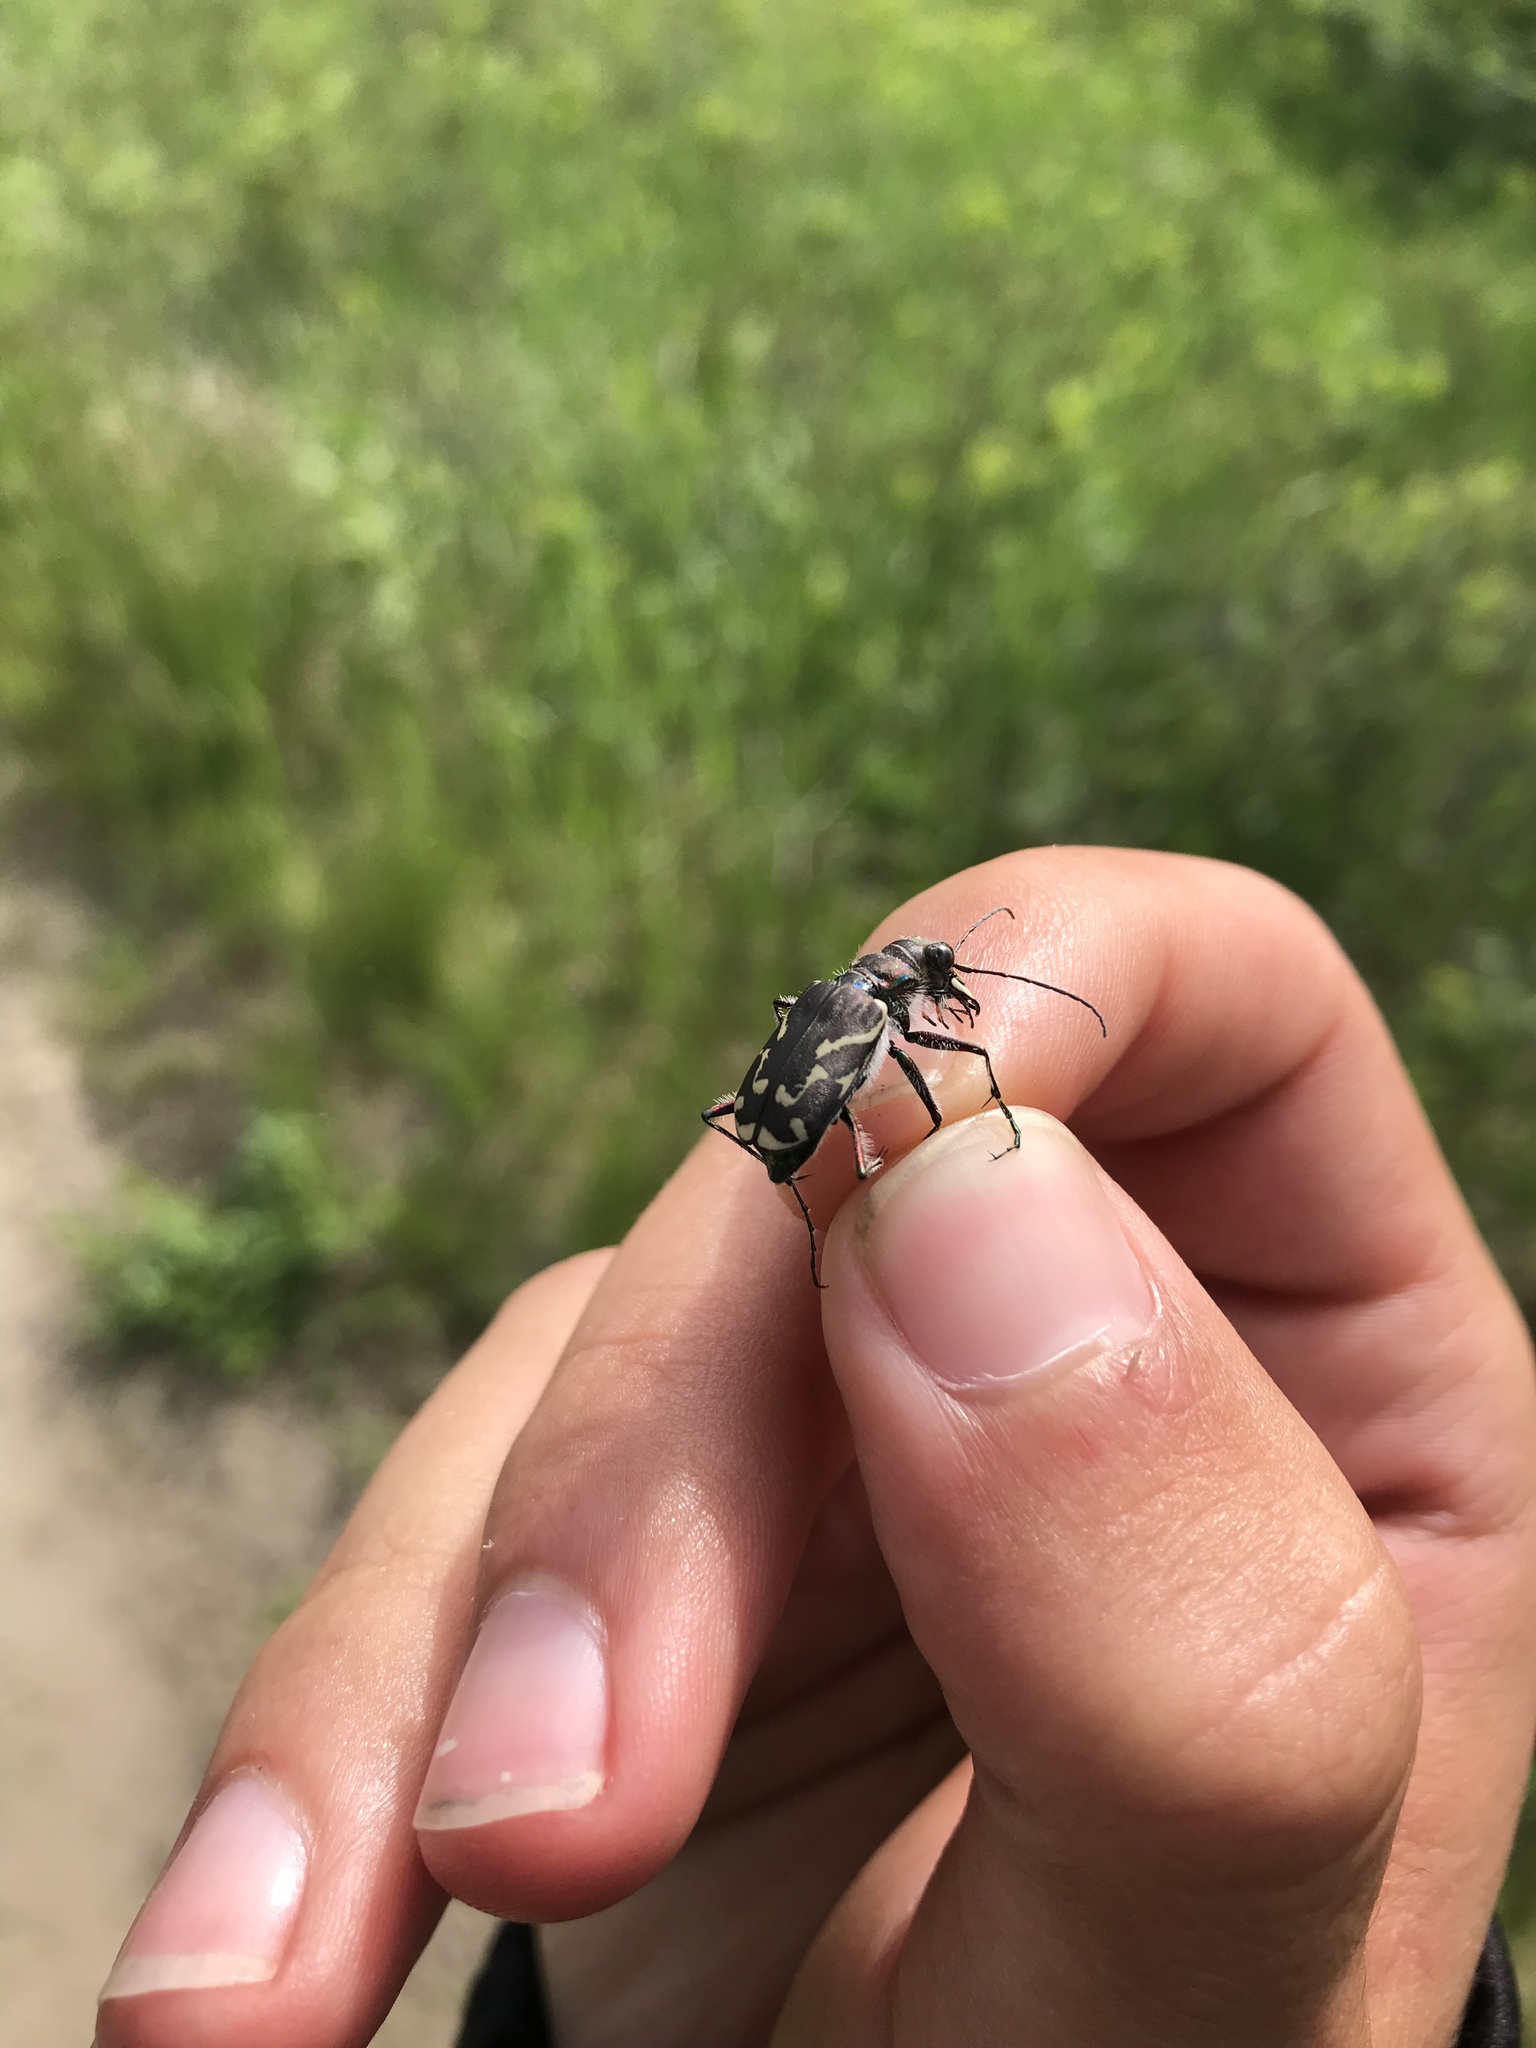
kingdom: Animalia
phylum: Arthropoda
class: Insecta
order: Coleoptera
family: Carabidae
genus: Cicindela
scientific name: Cicindela tranquebarica
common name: Oblique-lined tiger beetle
